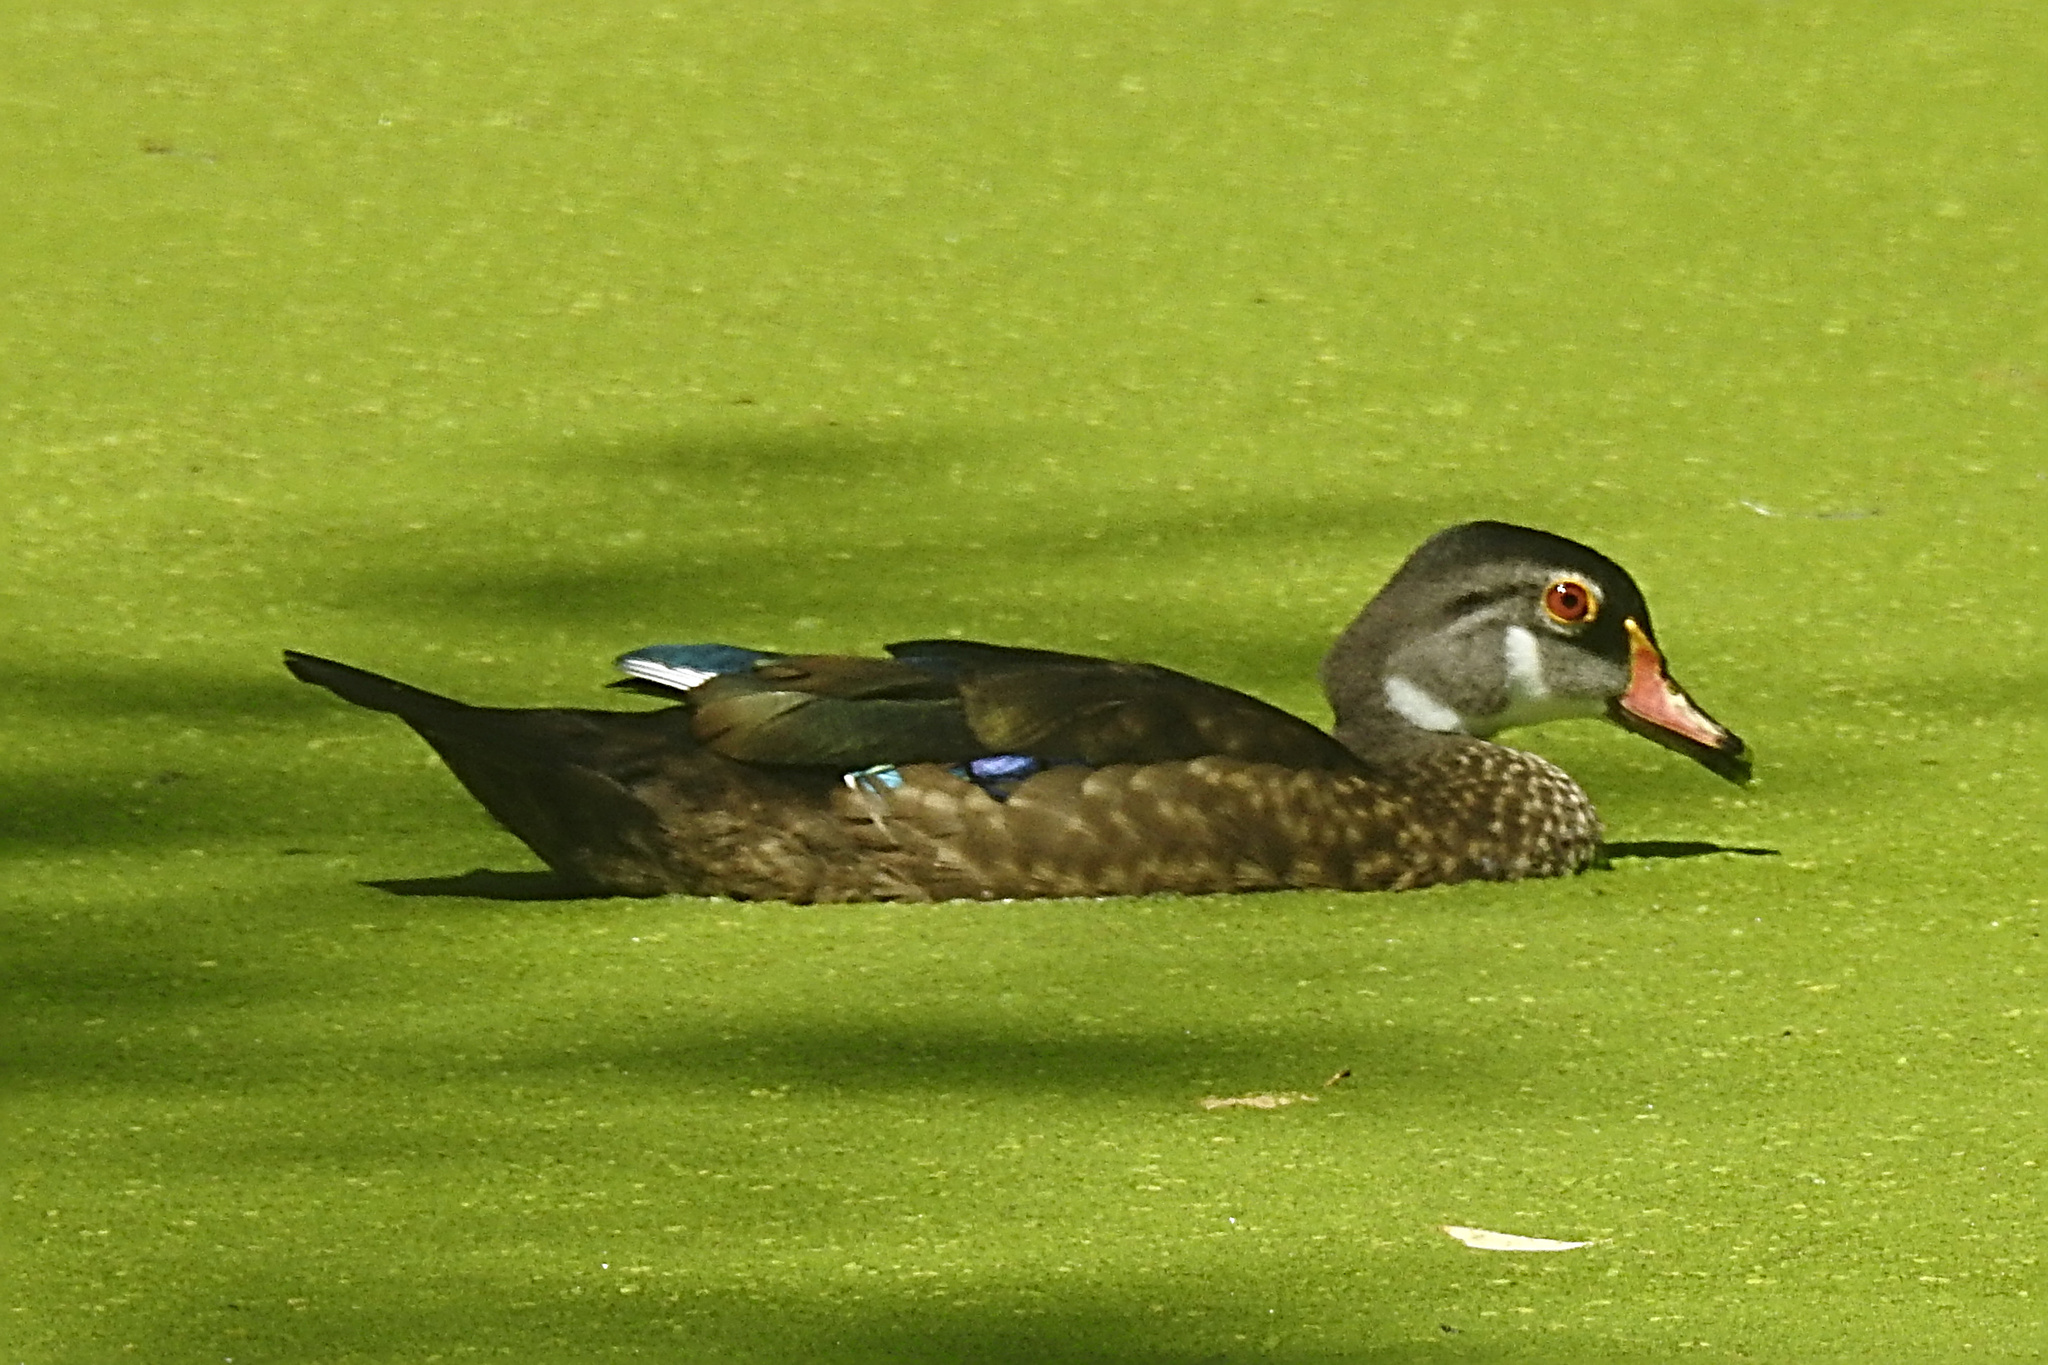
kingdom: Animalia
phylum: Chordata
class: Aves
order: Anseriformes
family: Anatidae
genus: Aix
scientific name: Aix sponsa
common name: Wood duck
